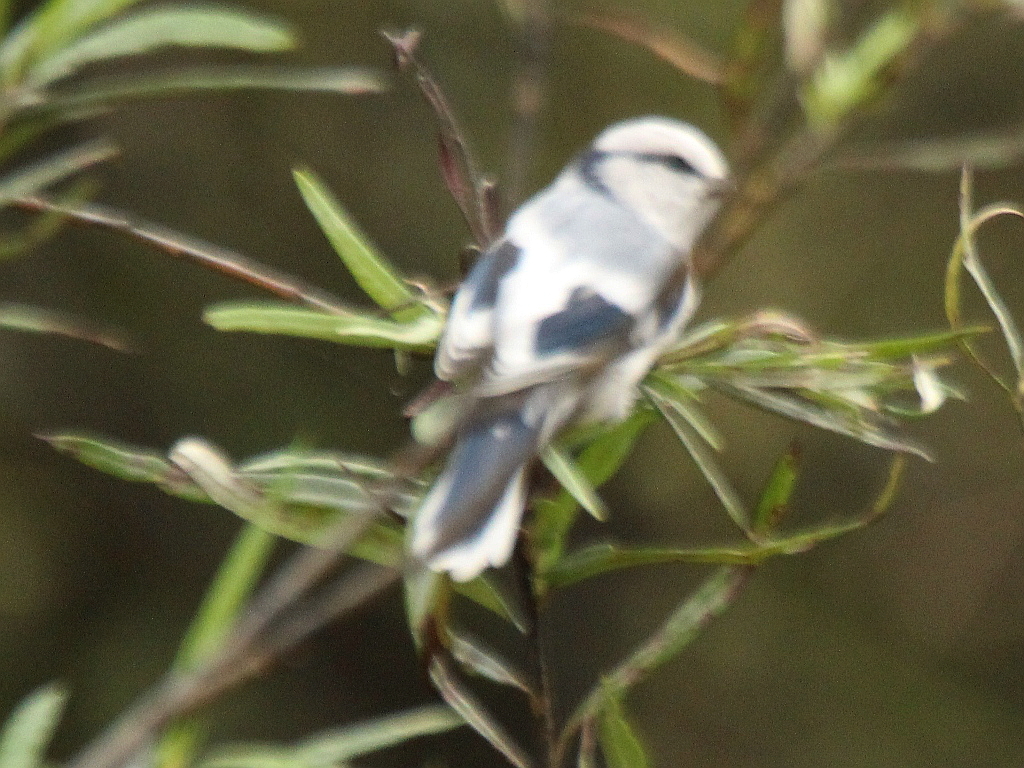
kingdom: Animalia
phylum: Chordata
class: Aves
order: Passeriformes
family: Paridae
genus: Cyanistes
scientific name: Cyanistes cyanus
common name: Azure tit
